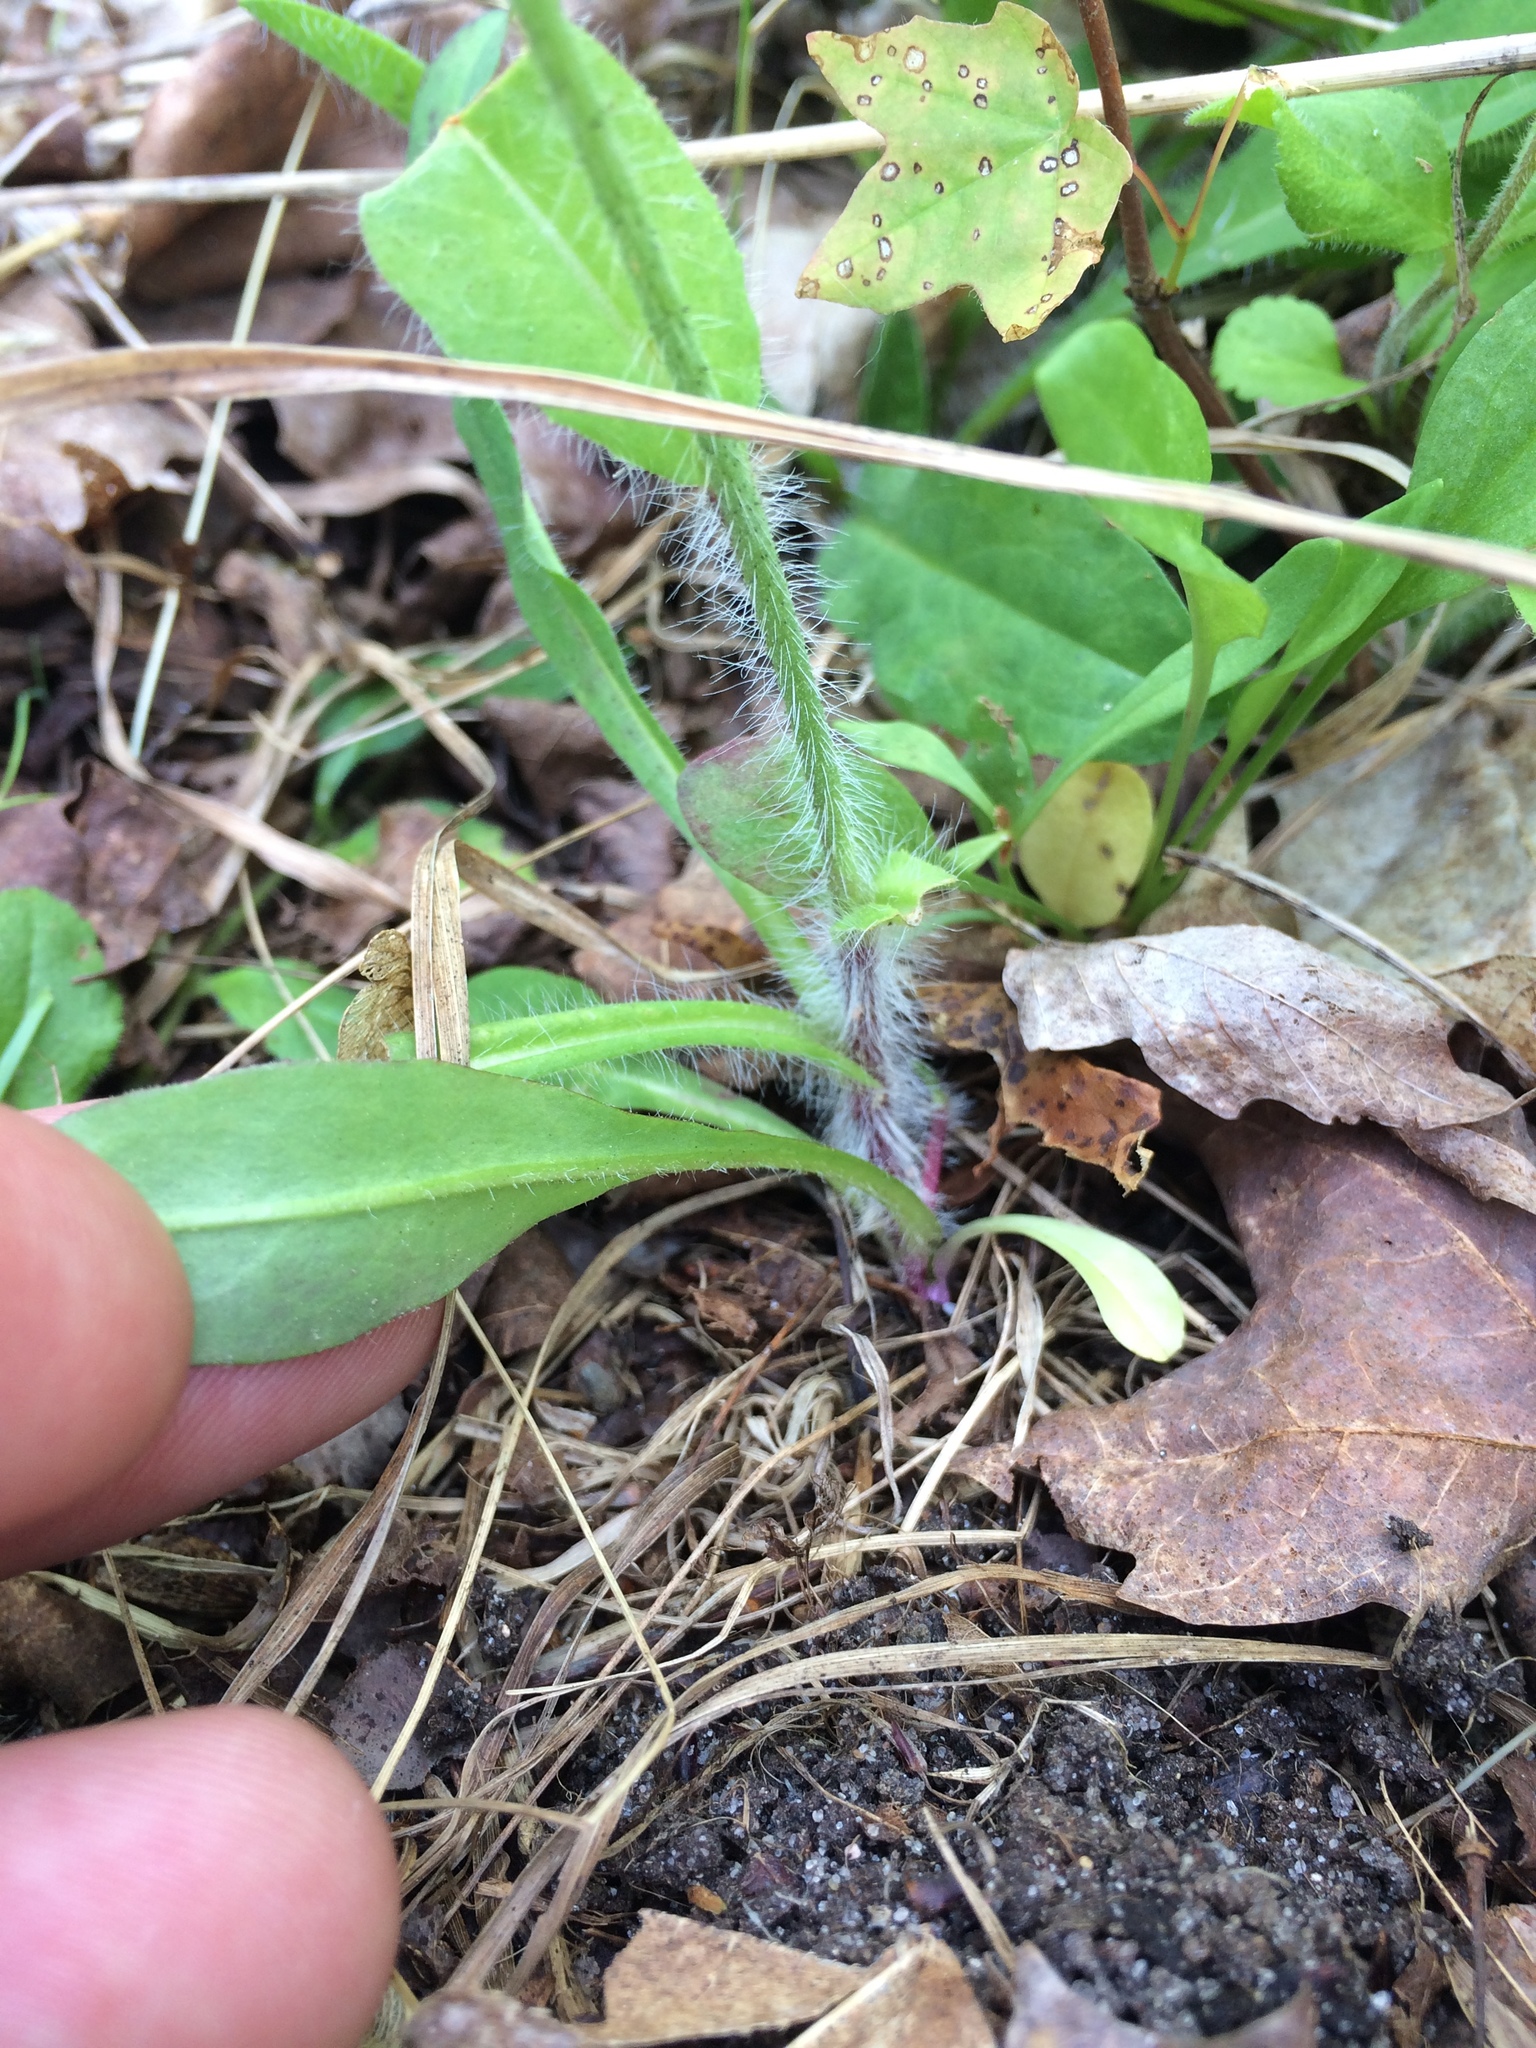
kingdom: Plantae
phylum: Tracheophyta
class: Magnoliopsida
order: Asterales
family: Asteraceae
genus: Pilosella
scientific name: Pilosella aurantiaca
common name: Fox-and-cubs
